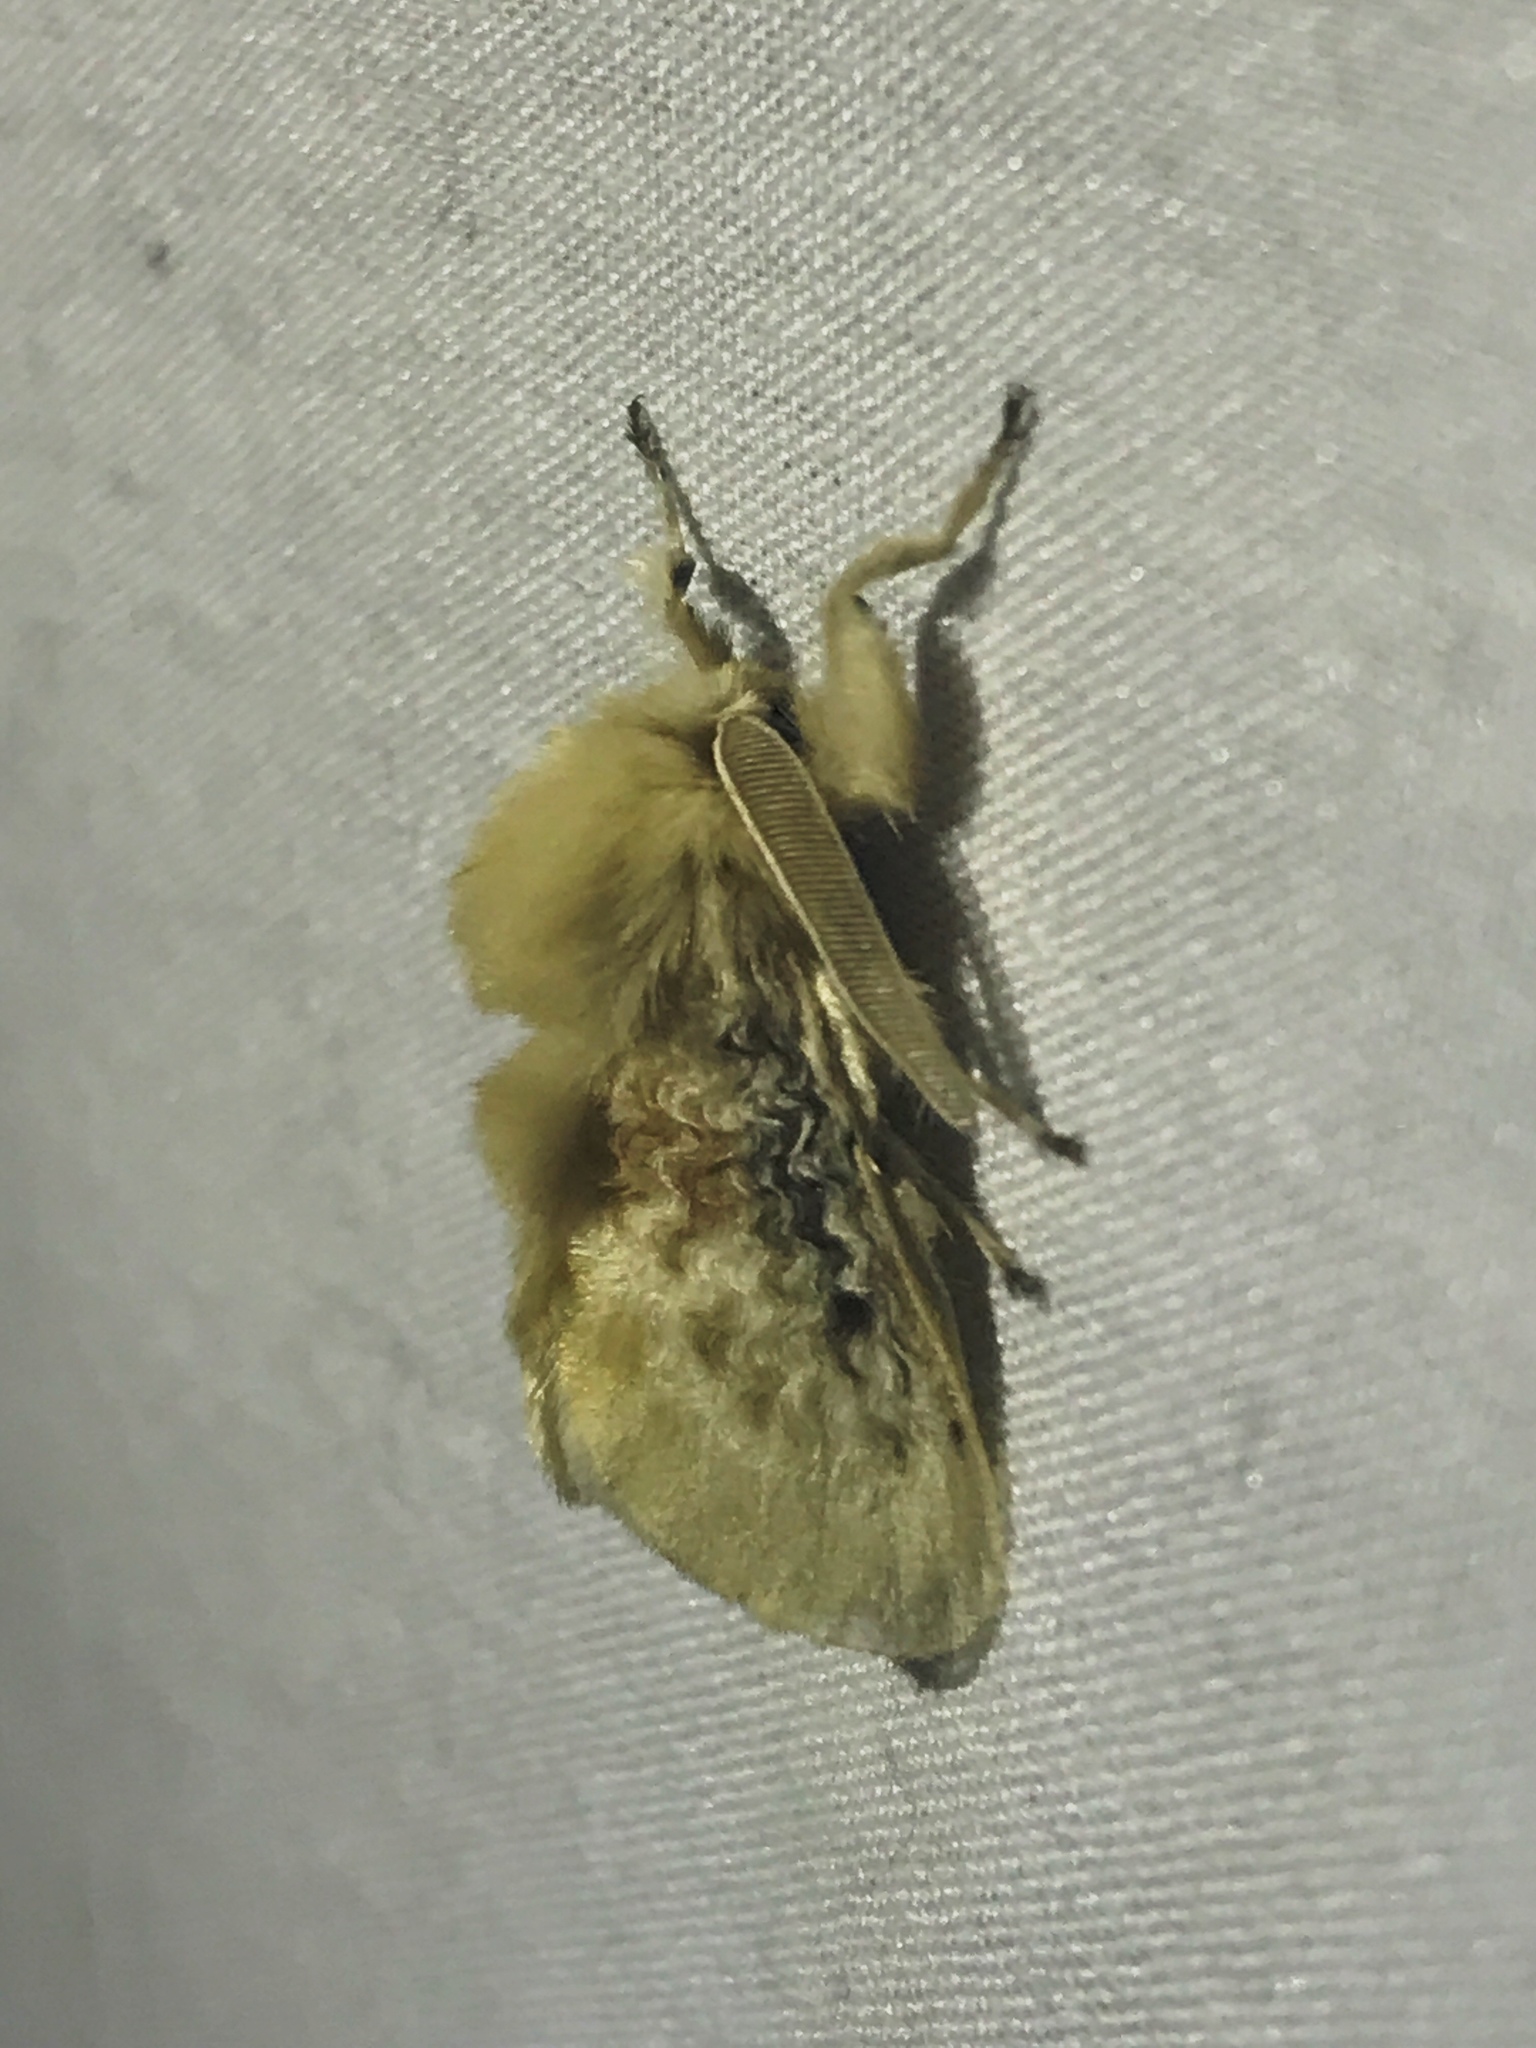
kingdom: Animalia
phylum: Arthropoda
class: Insecta
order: Lepidoptera
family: Megalopygidae
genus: Megalopyge
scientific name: Megalopyge crispata
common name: Black-waved flannel moth
